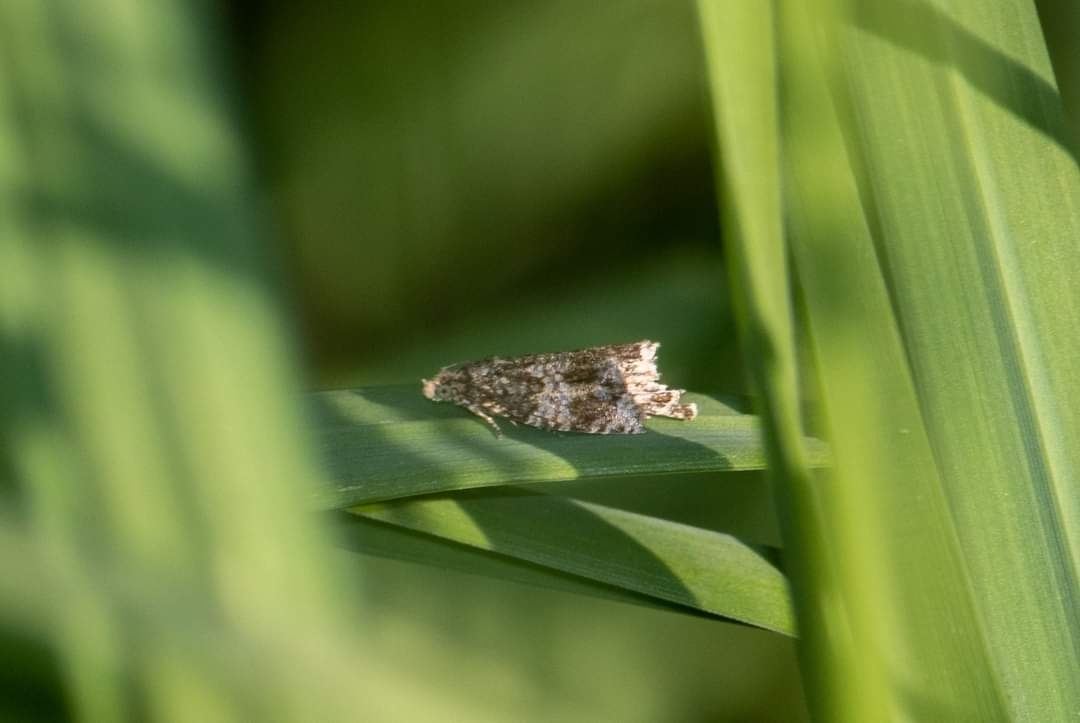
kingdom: Animalia
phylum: Arthropoda
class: Insecta
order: Lepidoptera
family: Tortricidae
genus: Syricoris
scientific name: Syricoris lacunana
